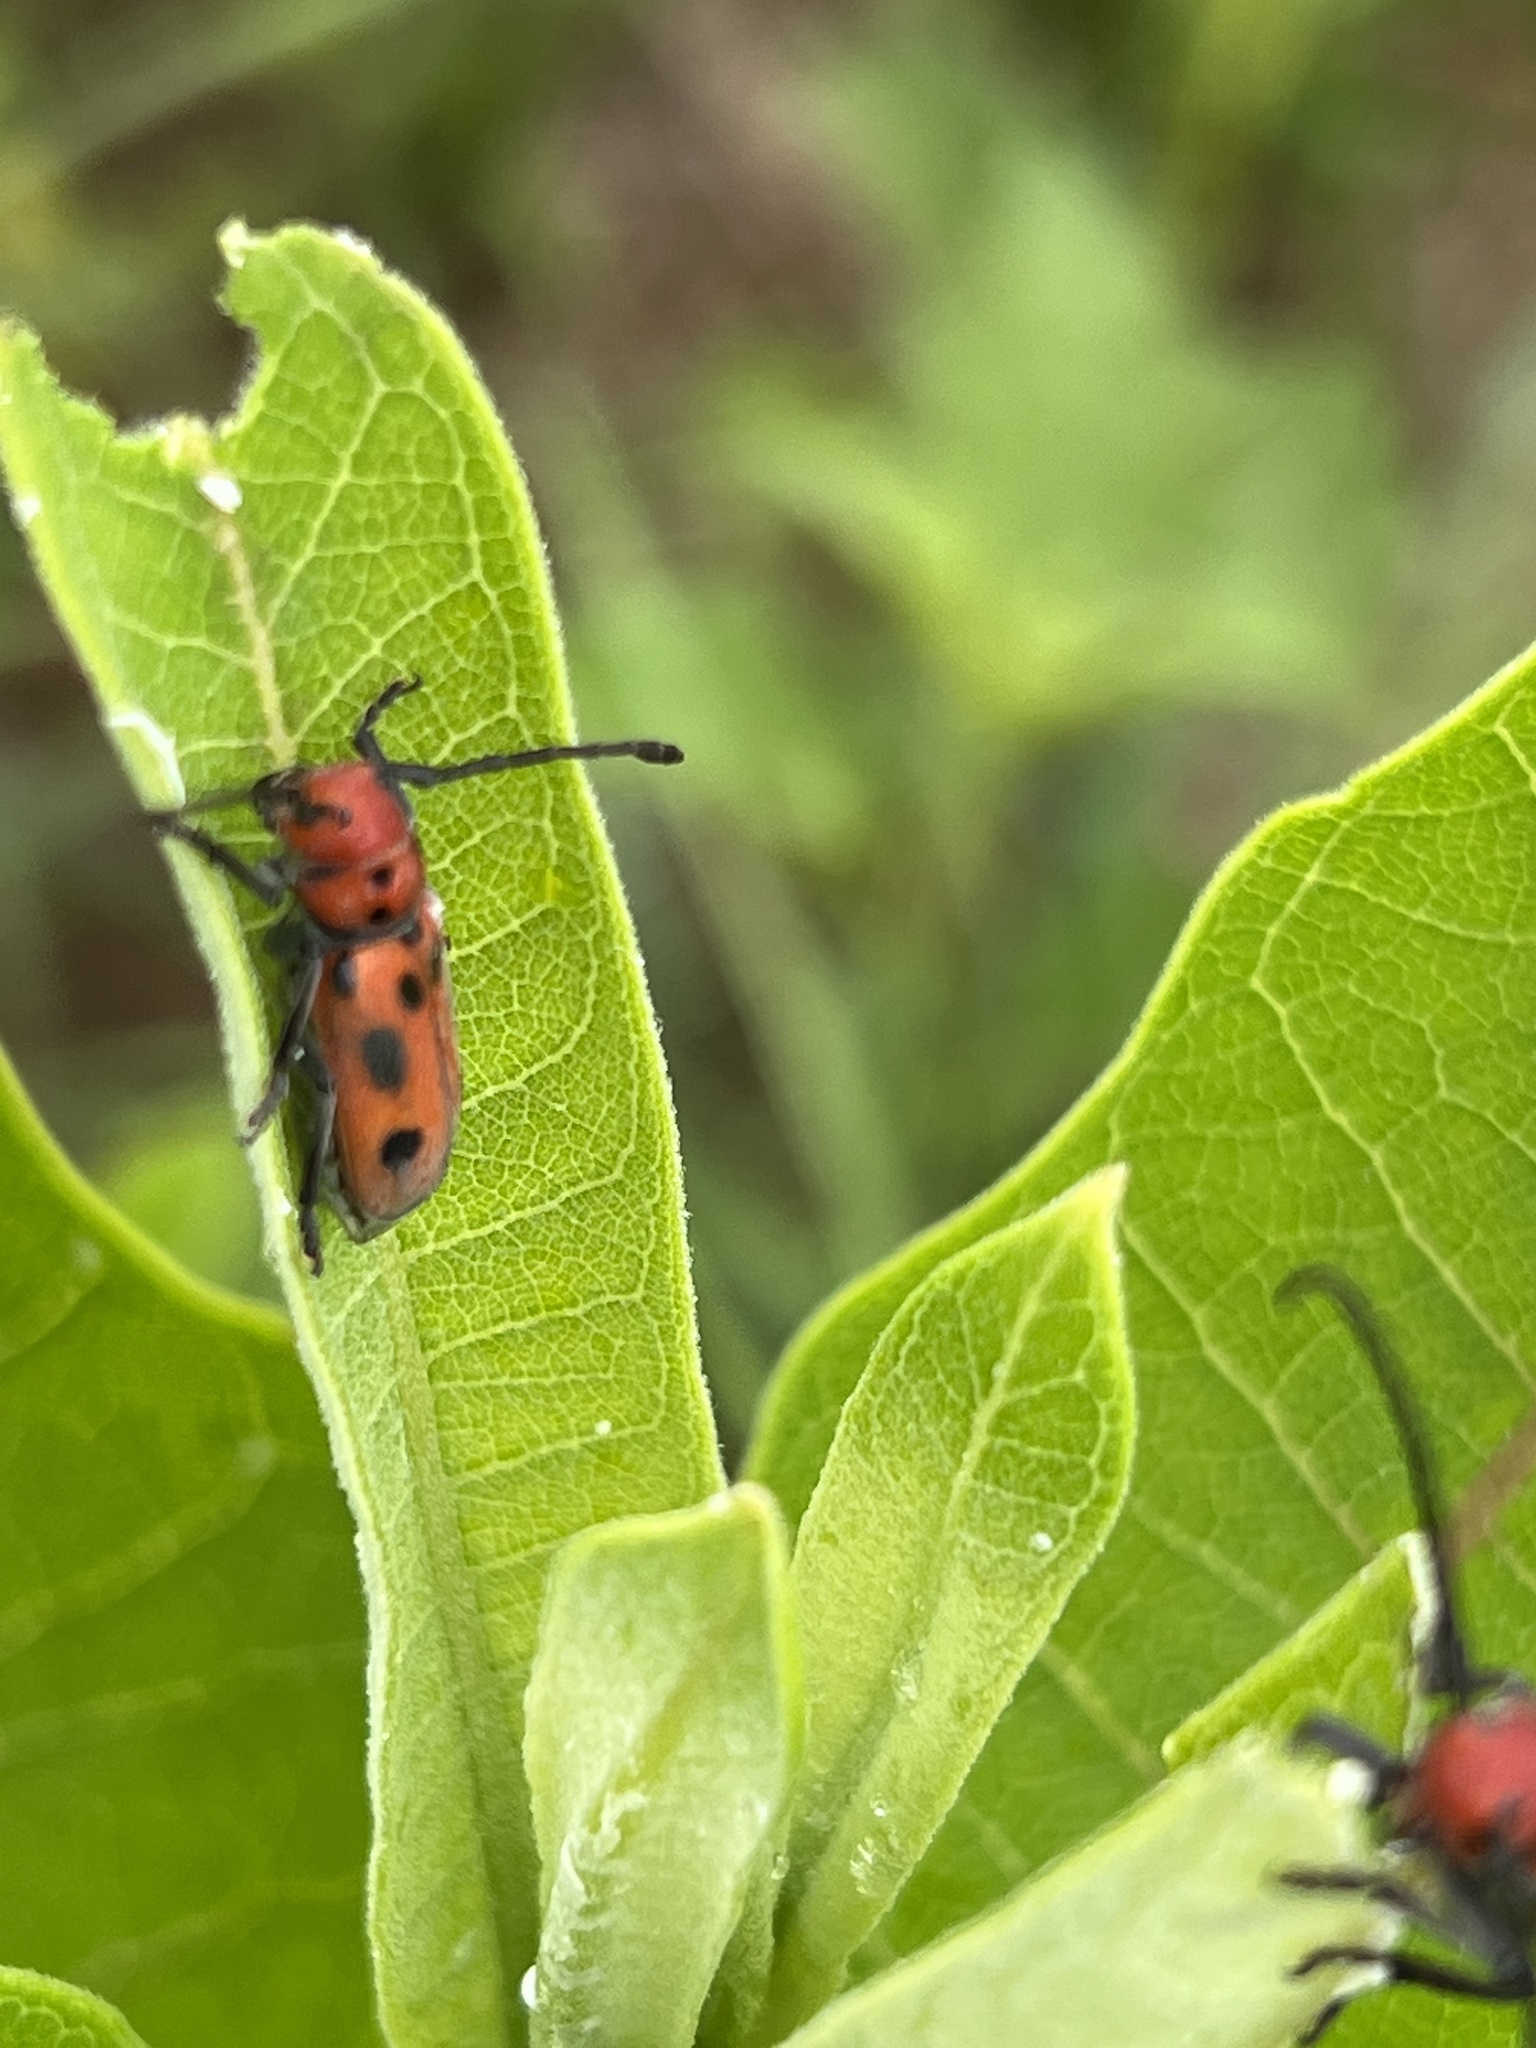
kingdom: Animalia
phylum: Arthropoda
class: Insecta
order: Coleoptera
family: Cerambycidae
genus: Tetraopes
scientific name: Tetraopes tetrophthalmus
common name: Red milkweed beetle
